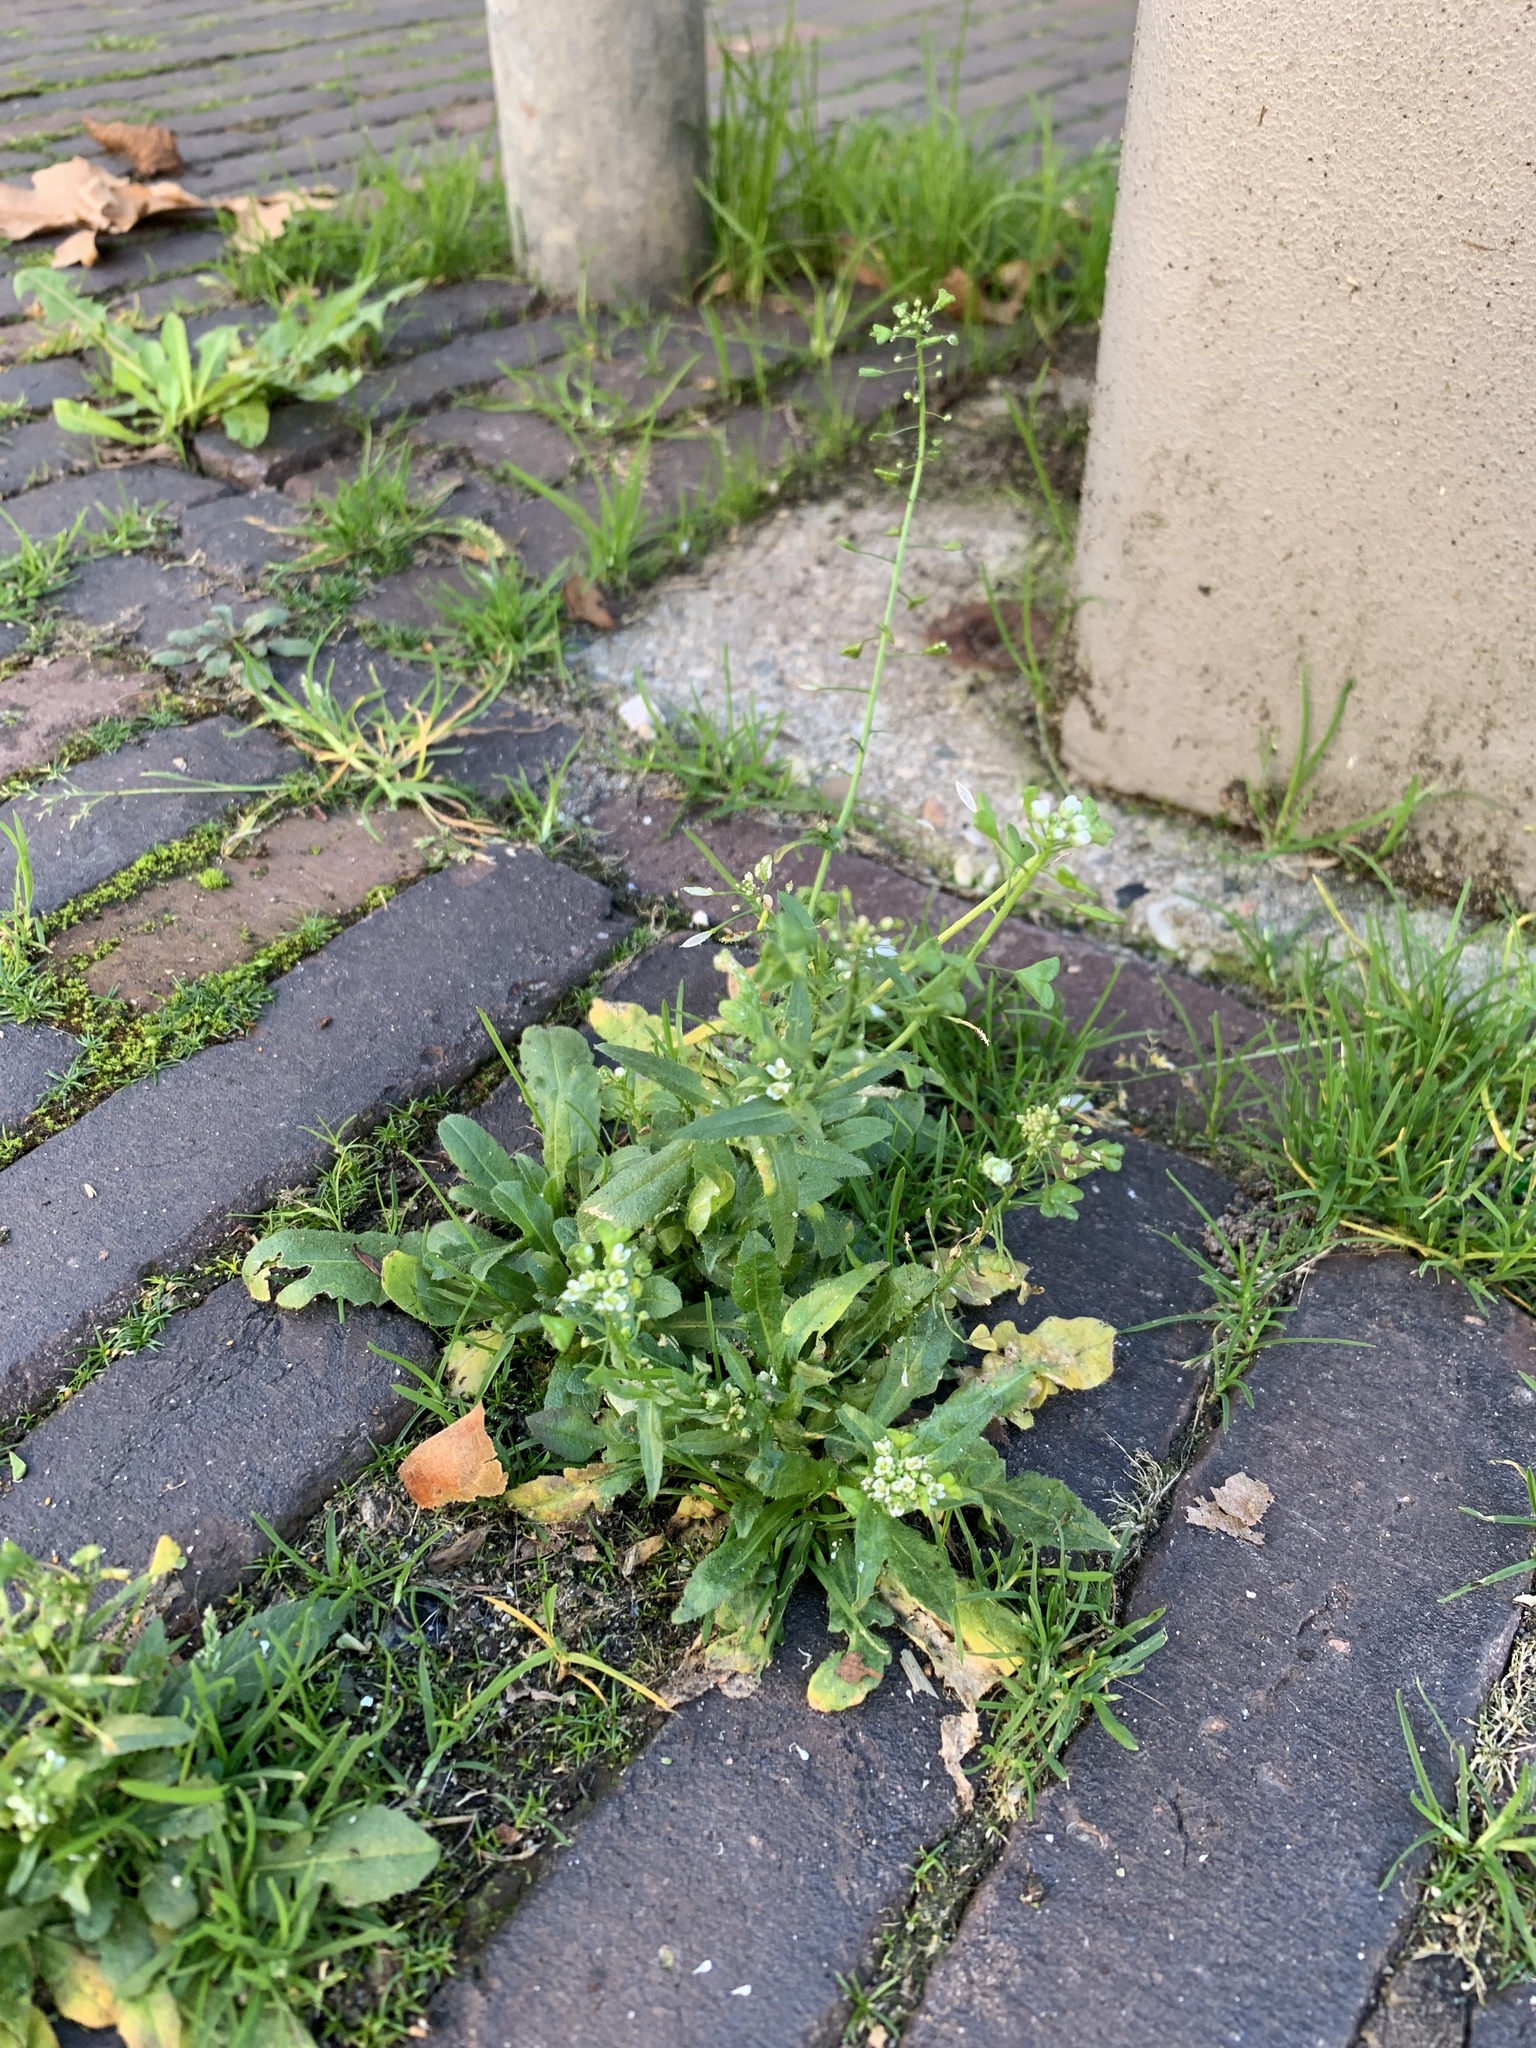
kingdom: Plantae
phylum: Tracheophyta
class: Magnoliopsida
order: Brassicales
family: Brassicaceae
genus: Capsella
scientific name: Capsella bursa-pastoris
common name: Shepherd's purse
